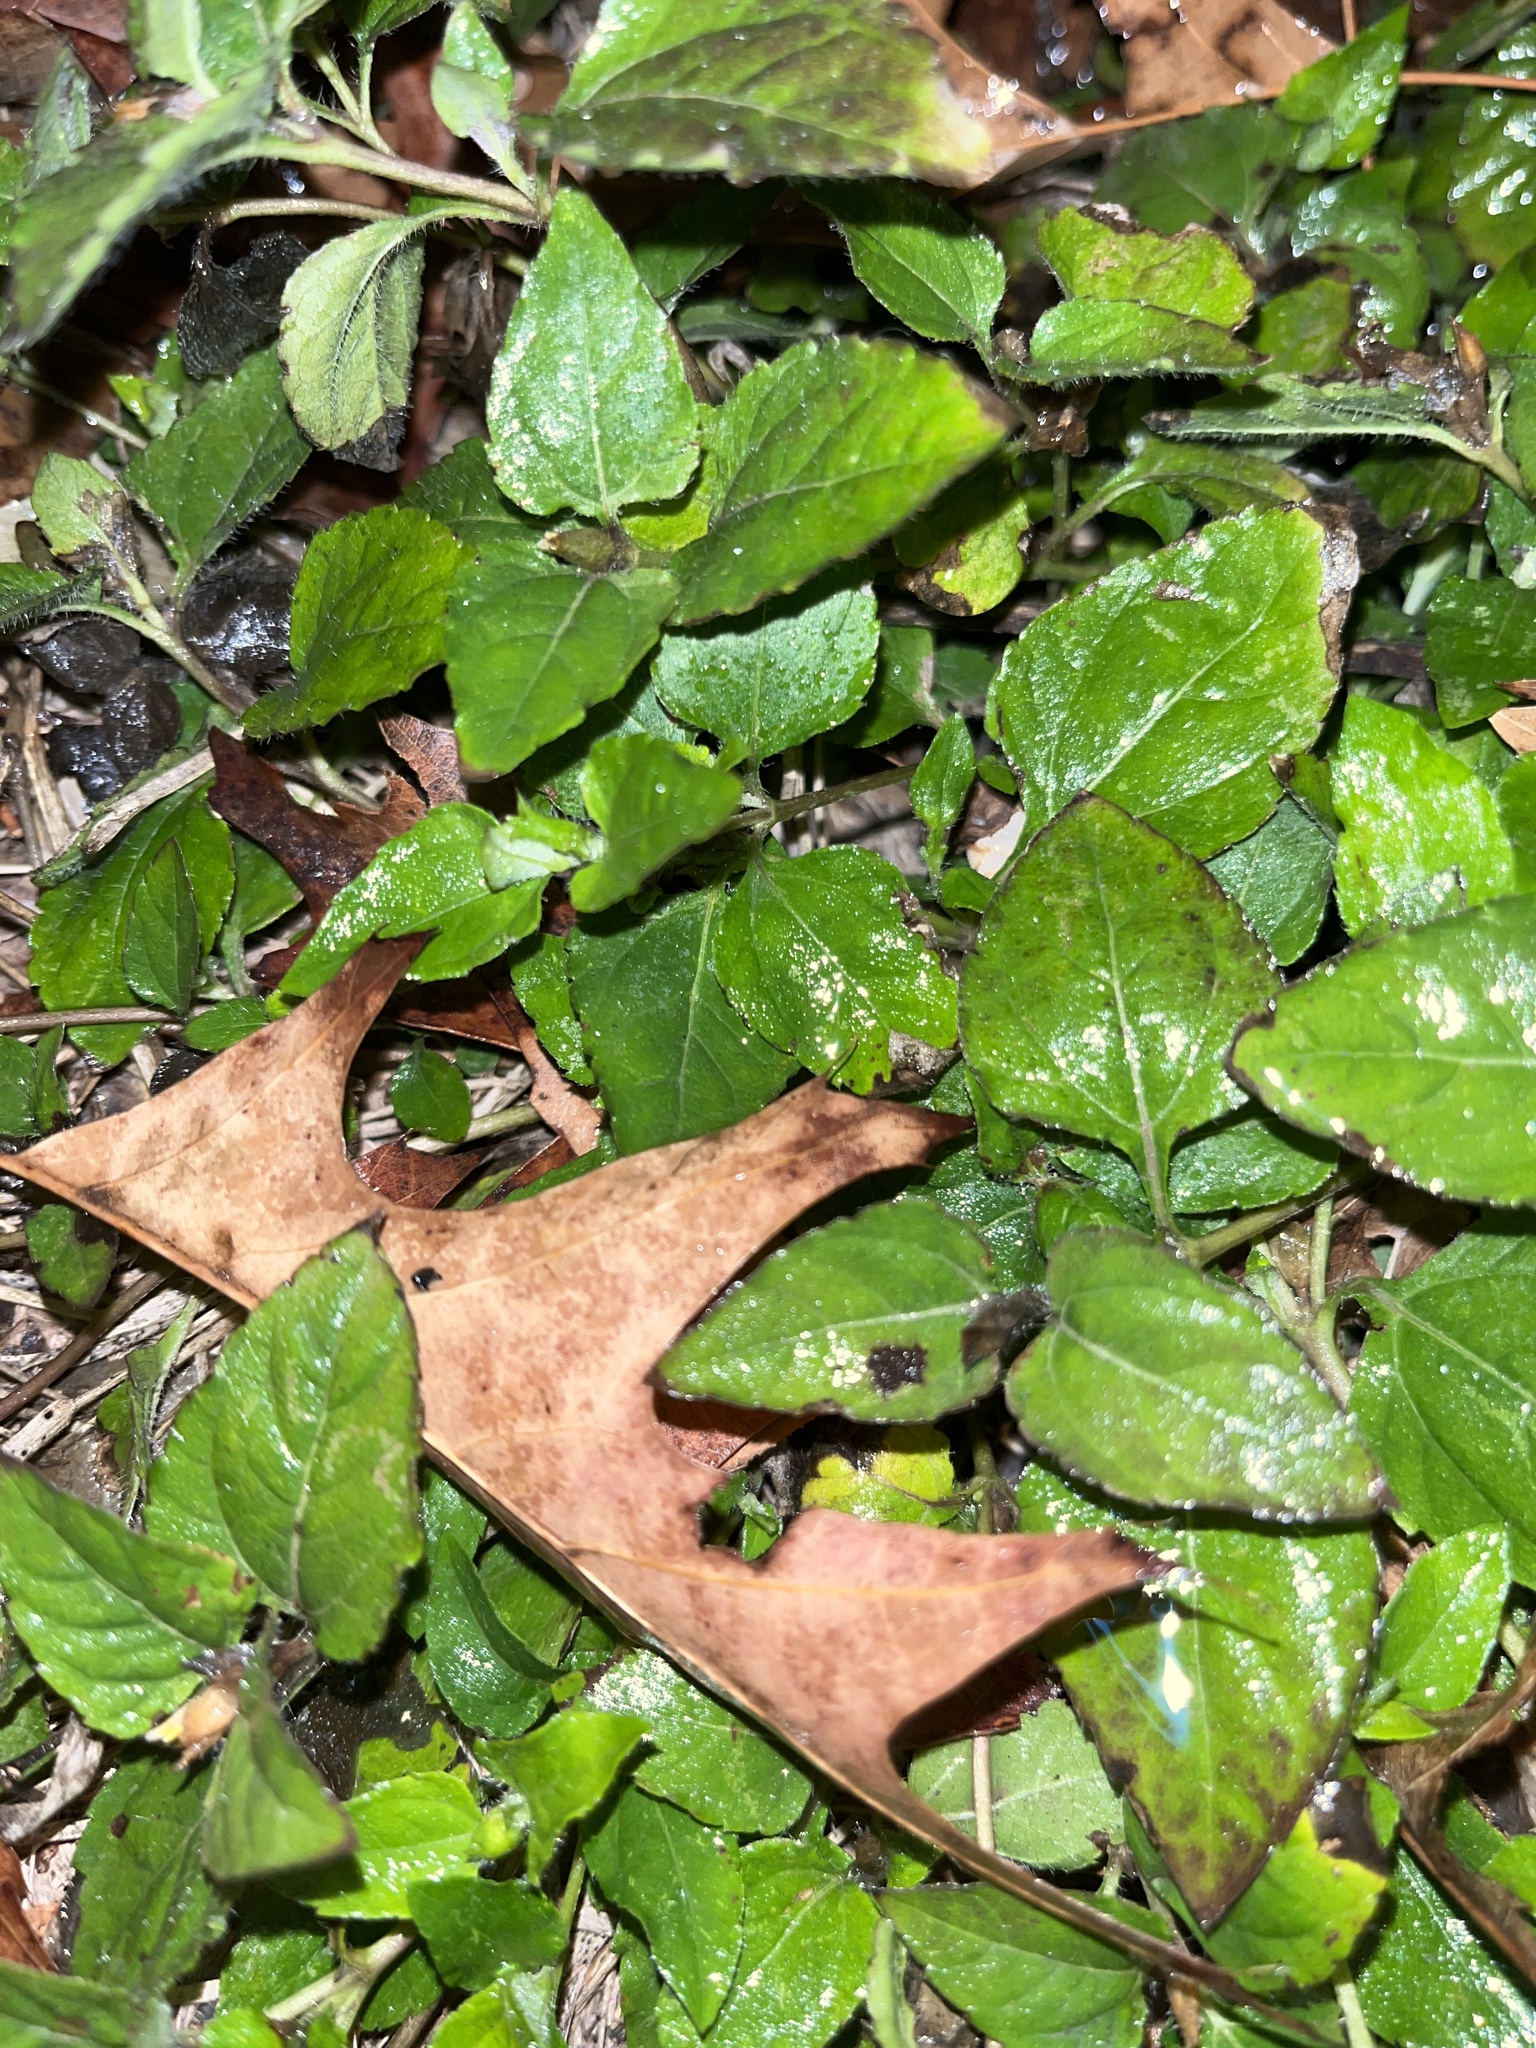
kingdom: Plantae
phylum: Tracheophyta
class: Magnoliopsida
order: Asterales
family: Asteraceae
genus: Calyptocarpus
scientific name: Calyptocarpus vialis
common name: Straggler daisy
